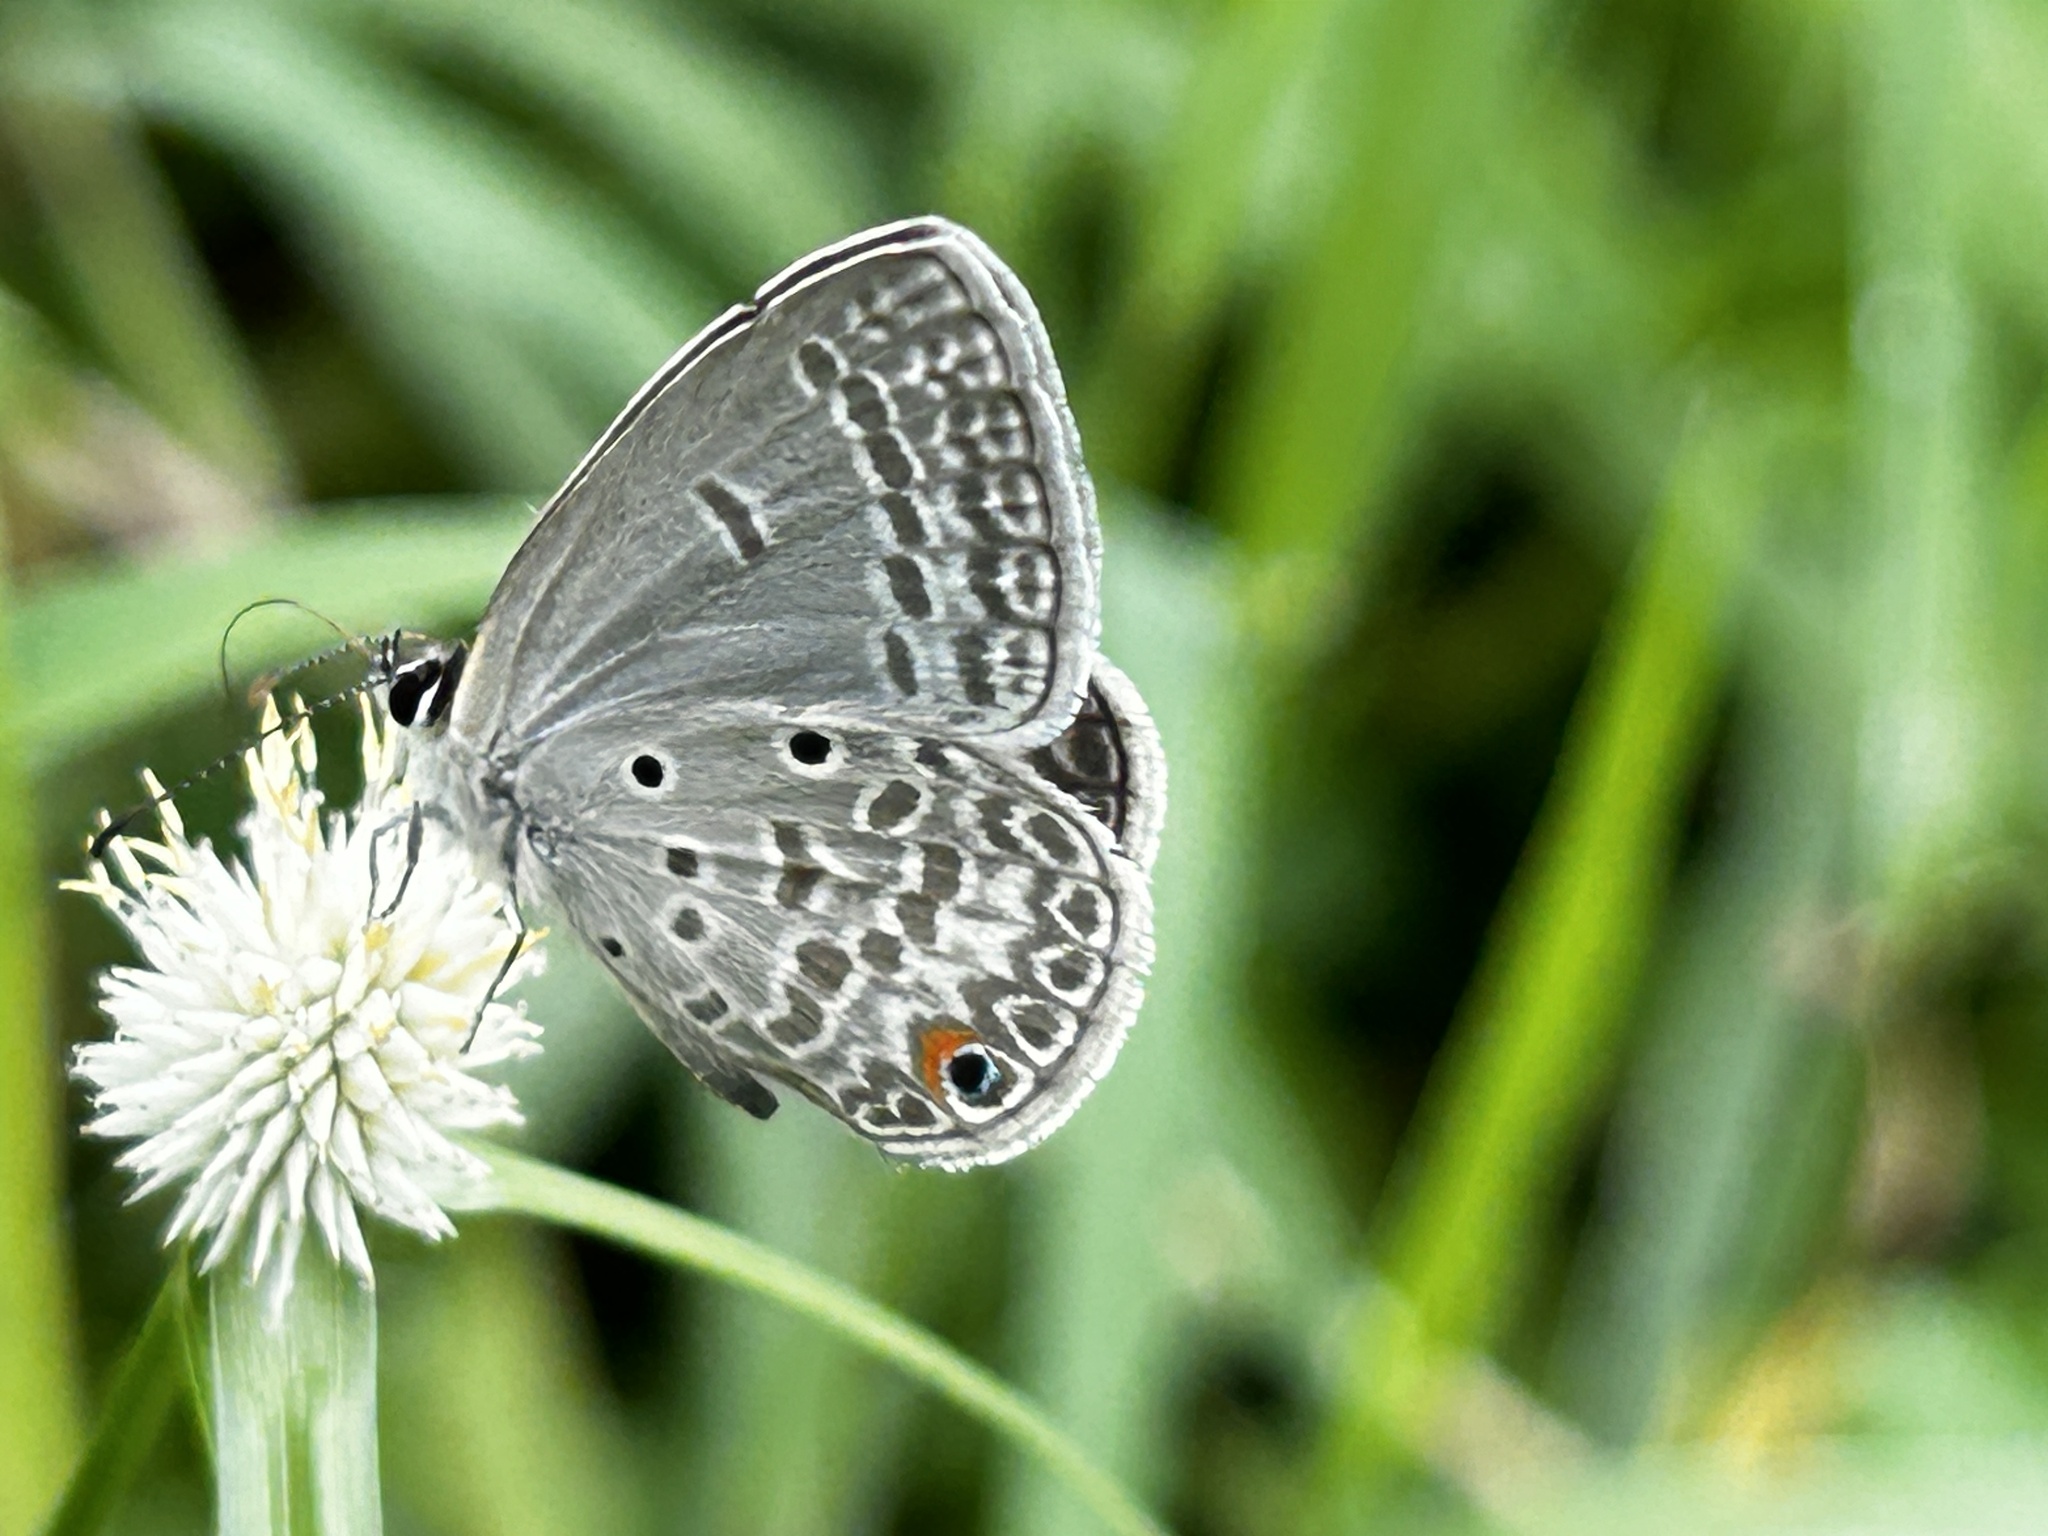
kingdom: Animalia
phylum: Arthropoda
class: Insecta
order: Lepidoptera
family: Lycaenidae
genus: Euchrysops
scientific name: Euchrysops malathana
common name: Common smoky blue
